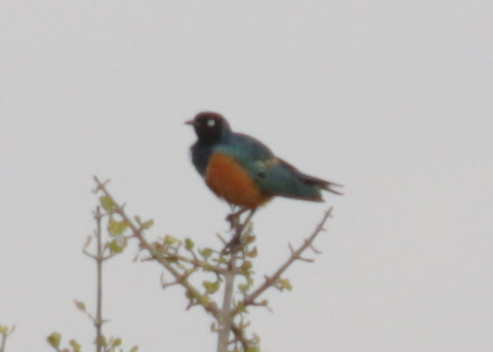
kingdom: Animalia
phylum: Chordata
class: Aves
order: Passeriformes
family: Sturnidae
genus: Lamprotornis
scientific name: Lamprotornis superbus
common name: Superb starling
